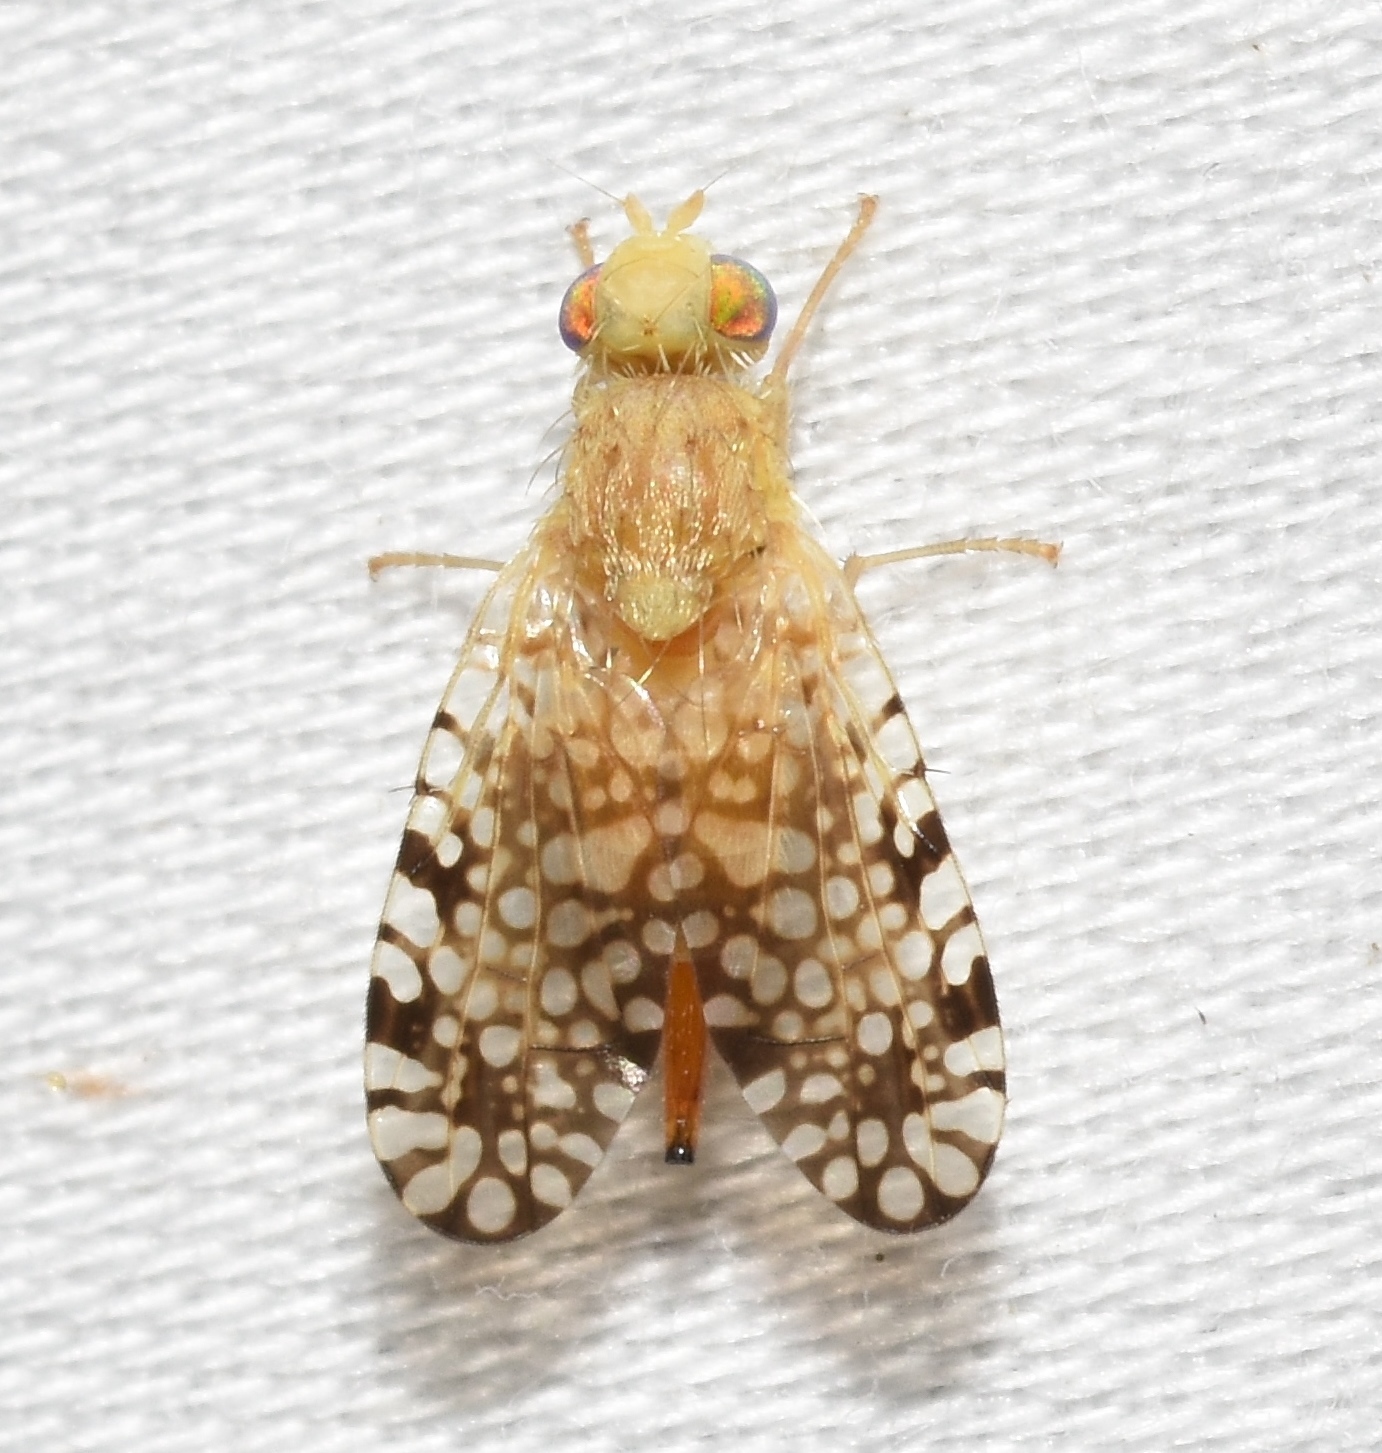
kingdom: Animalia
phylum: Arthropoda
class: Insecta
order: Diptera
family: Tephritidae
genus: Euaresta
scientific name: Euaresta aequalis
